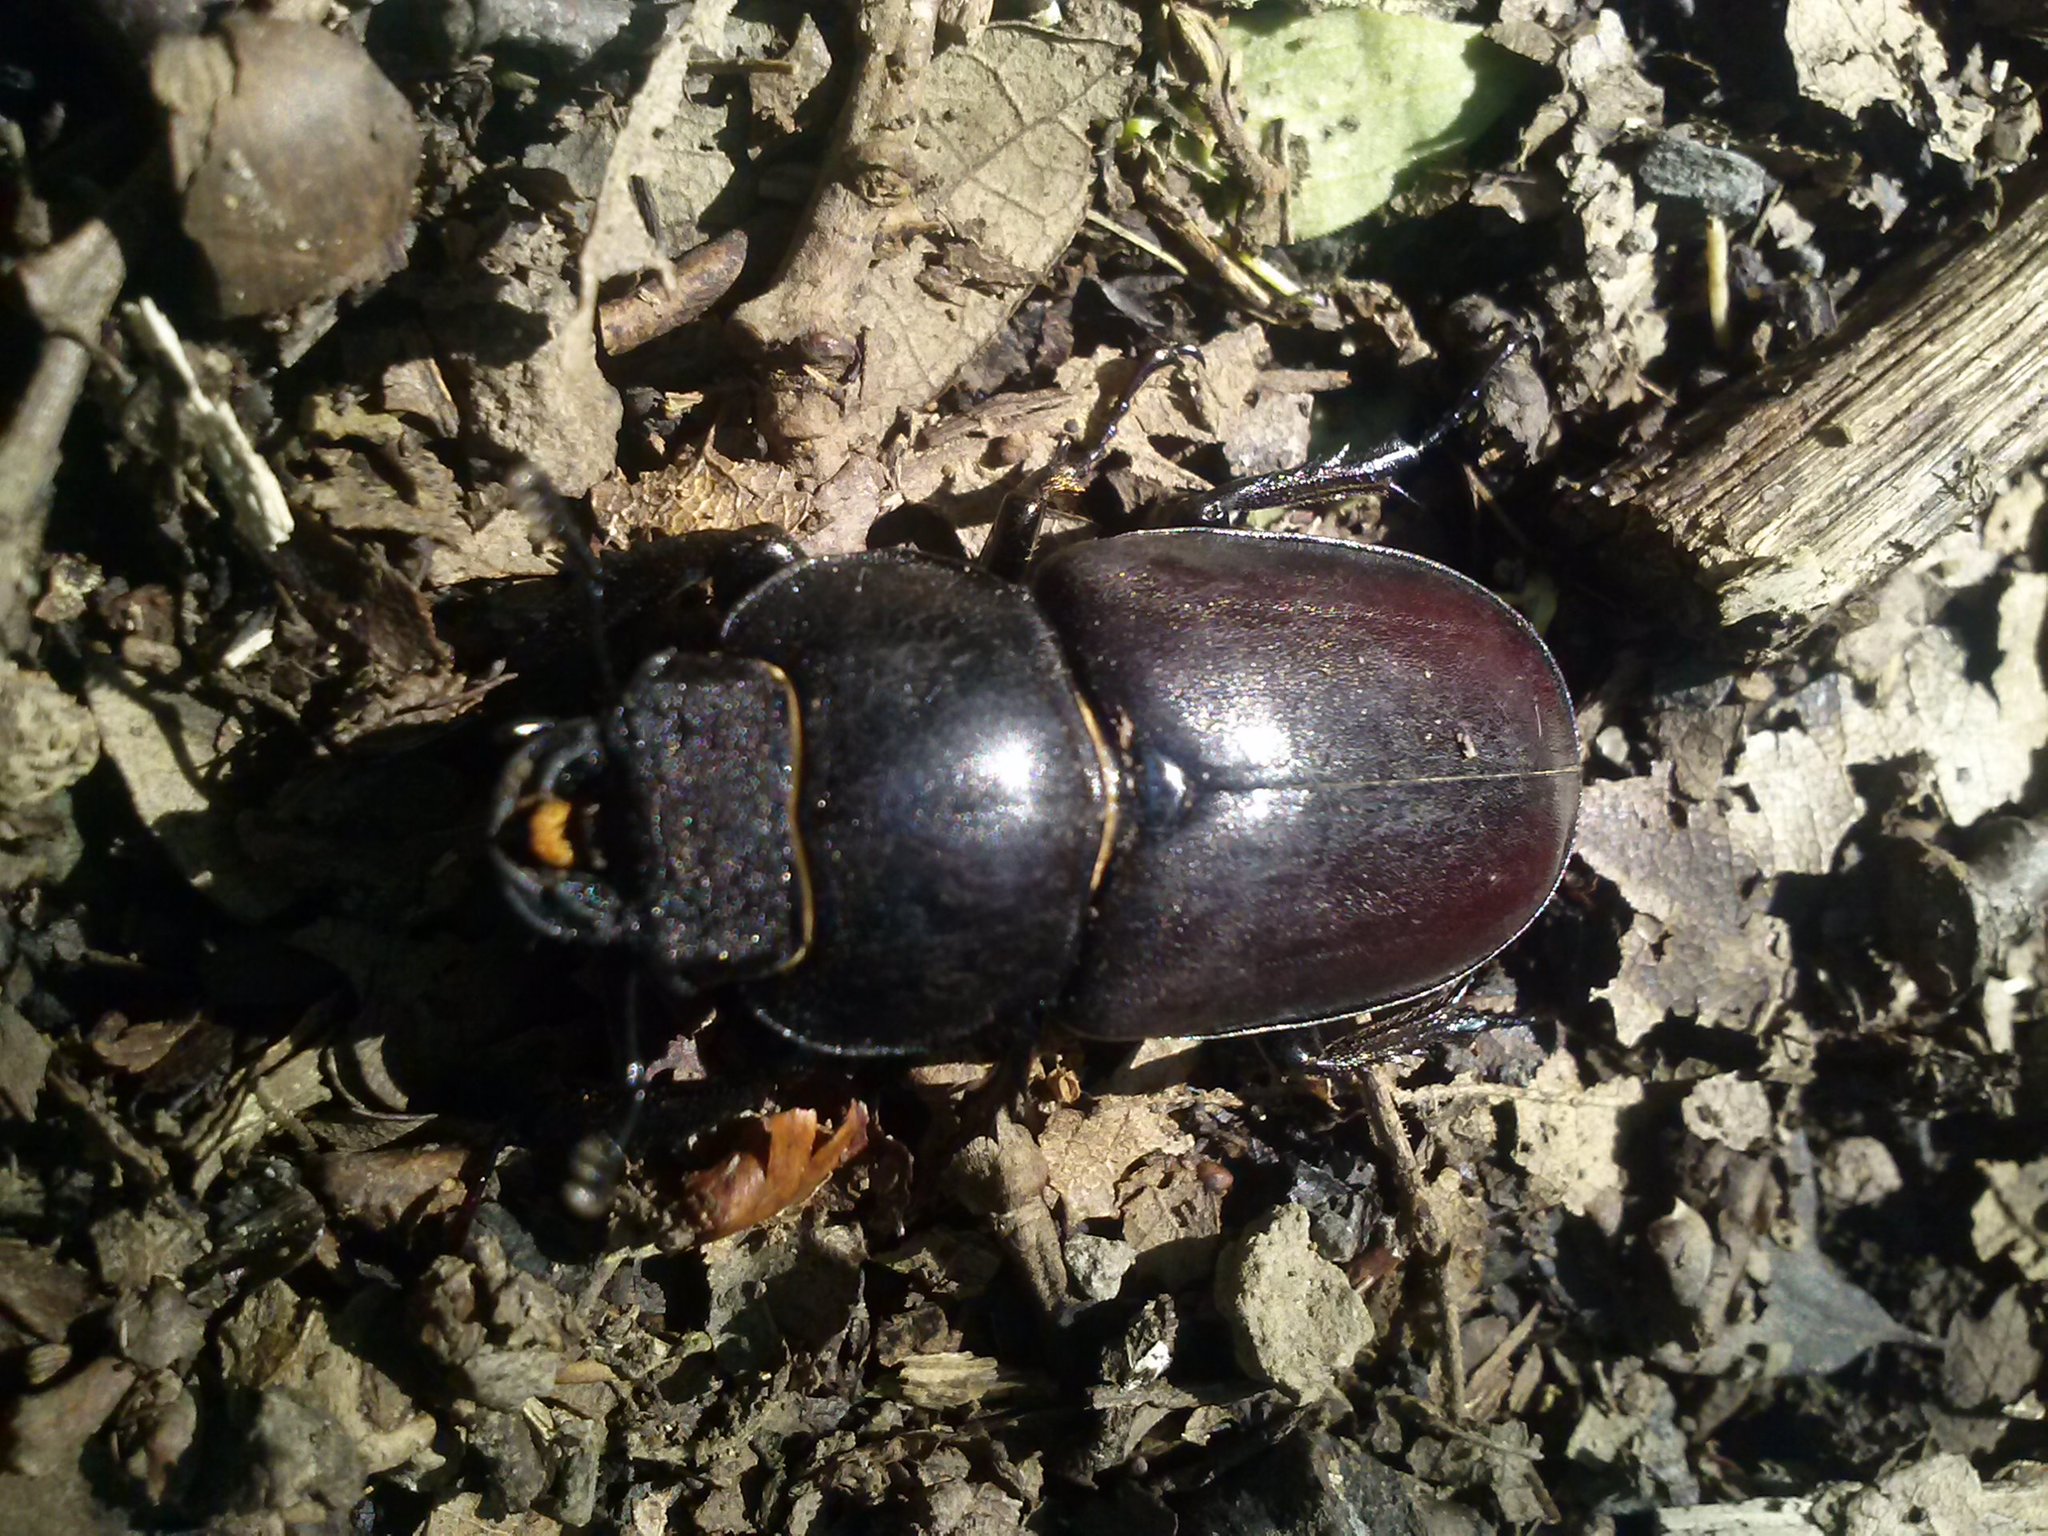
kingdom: Animalia
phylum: Arthropoda
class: Insecta
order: Coleoptera
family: Lucanidae
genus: Lucanus
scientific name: Lucanus cervus
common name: Stag beetle
